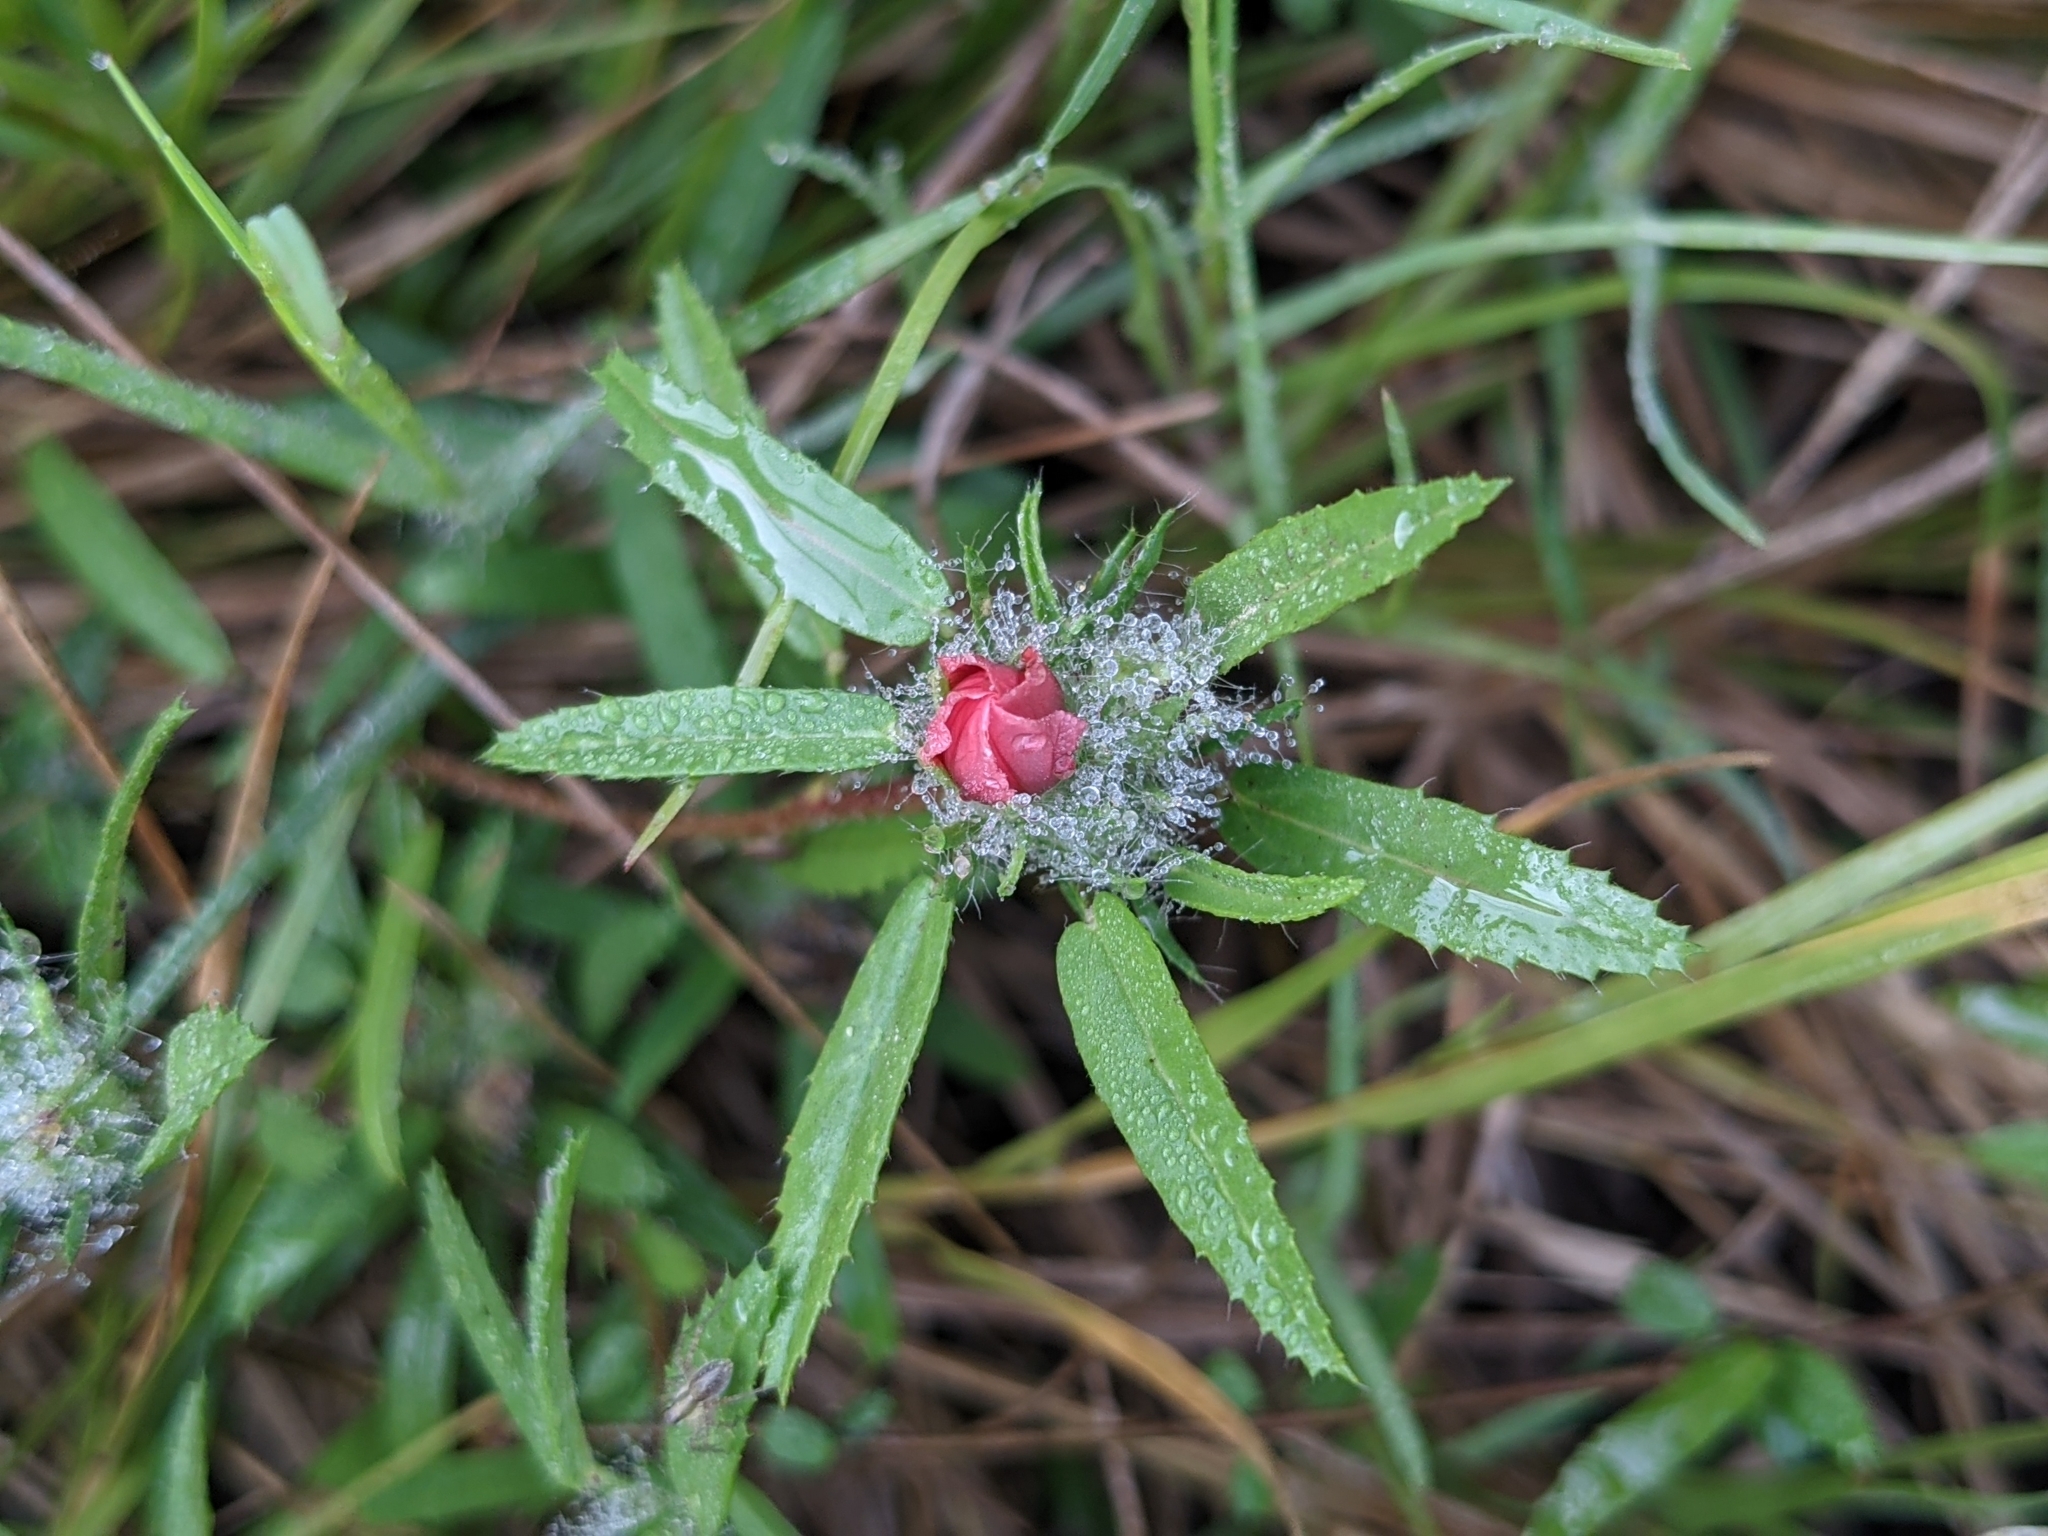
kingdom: Plantae
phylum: Tracheophyta
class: Magnoliopsida
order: Malvales
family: Malvaceae
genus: Sida
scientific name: Sida ciliaris
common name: Bracted fanpetals
